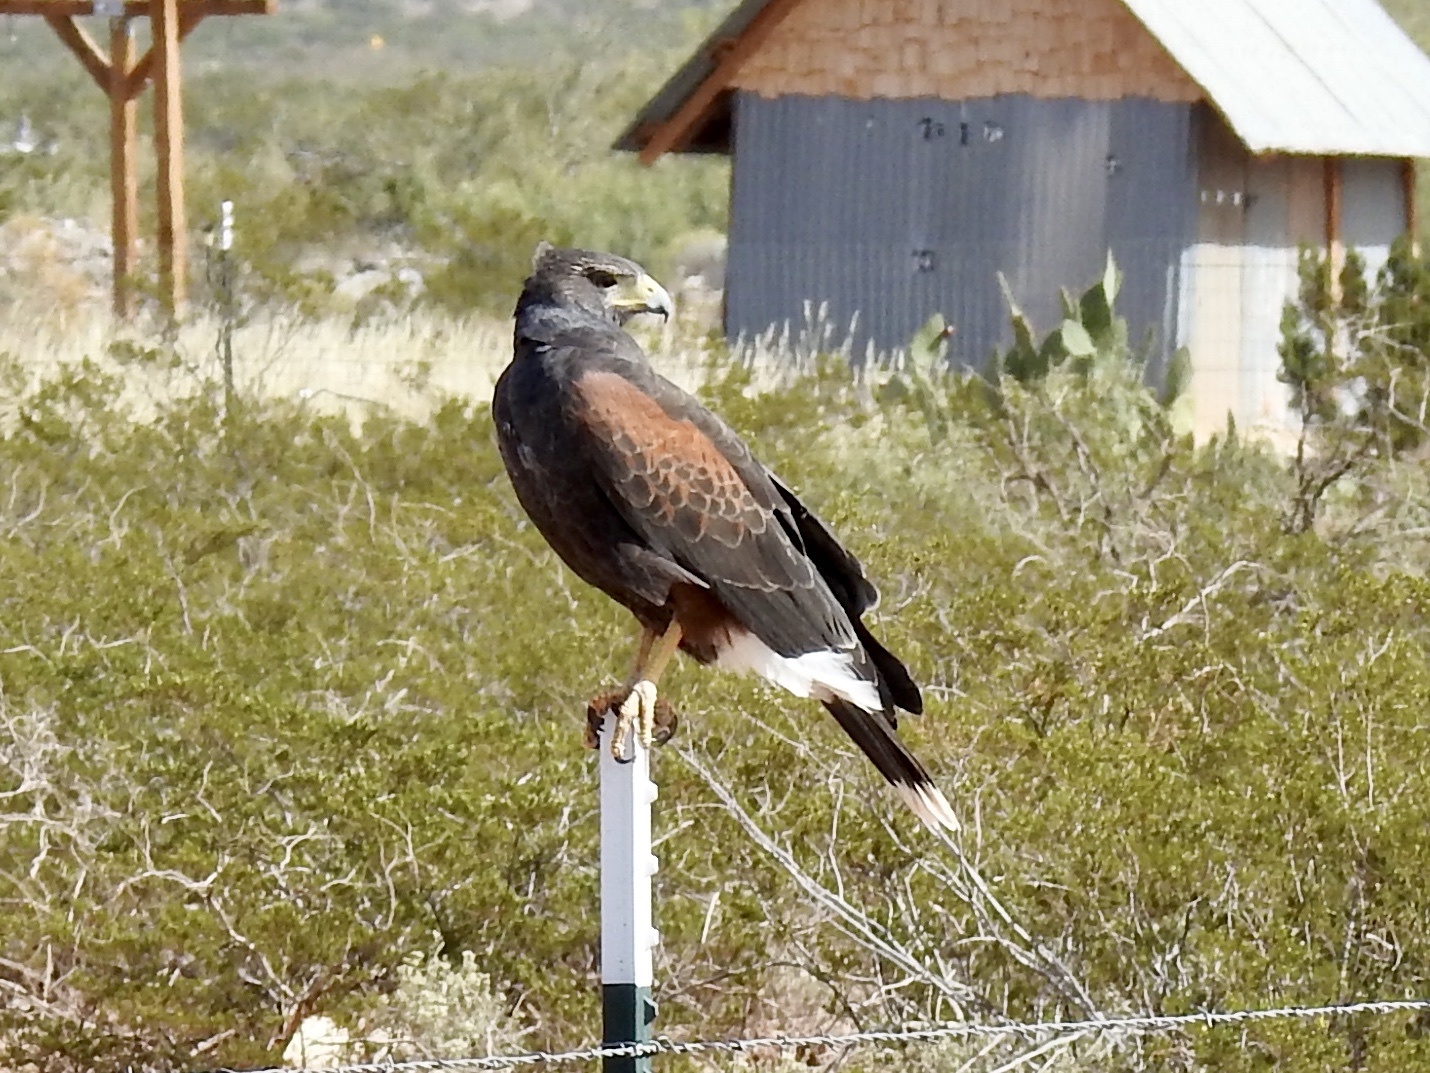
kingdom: Animalia
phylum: Chordata
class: Aves
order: Accipitriformes
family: Accipitridae
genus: Parabuteo
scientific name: Parabuteo unicinctus
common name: Harris's hawk
